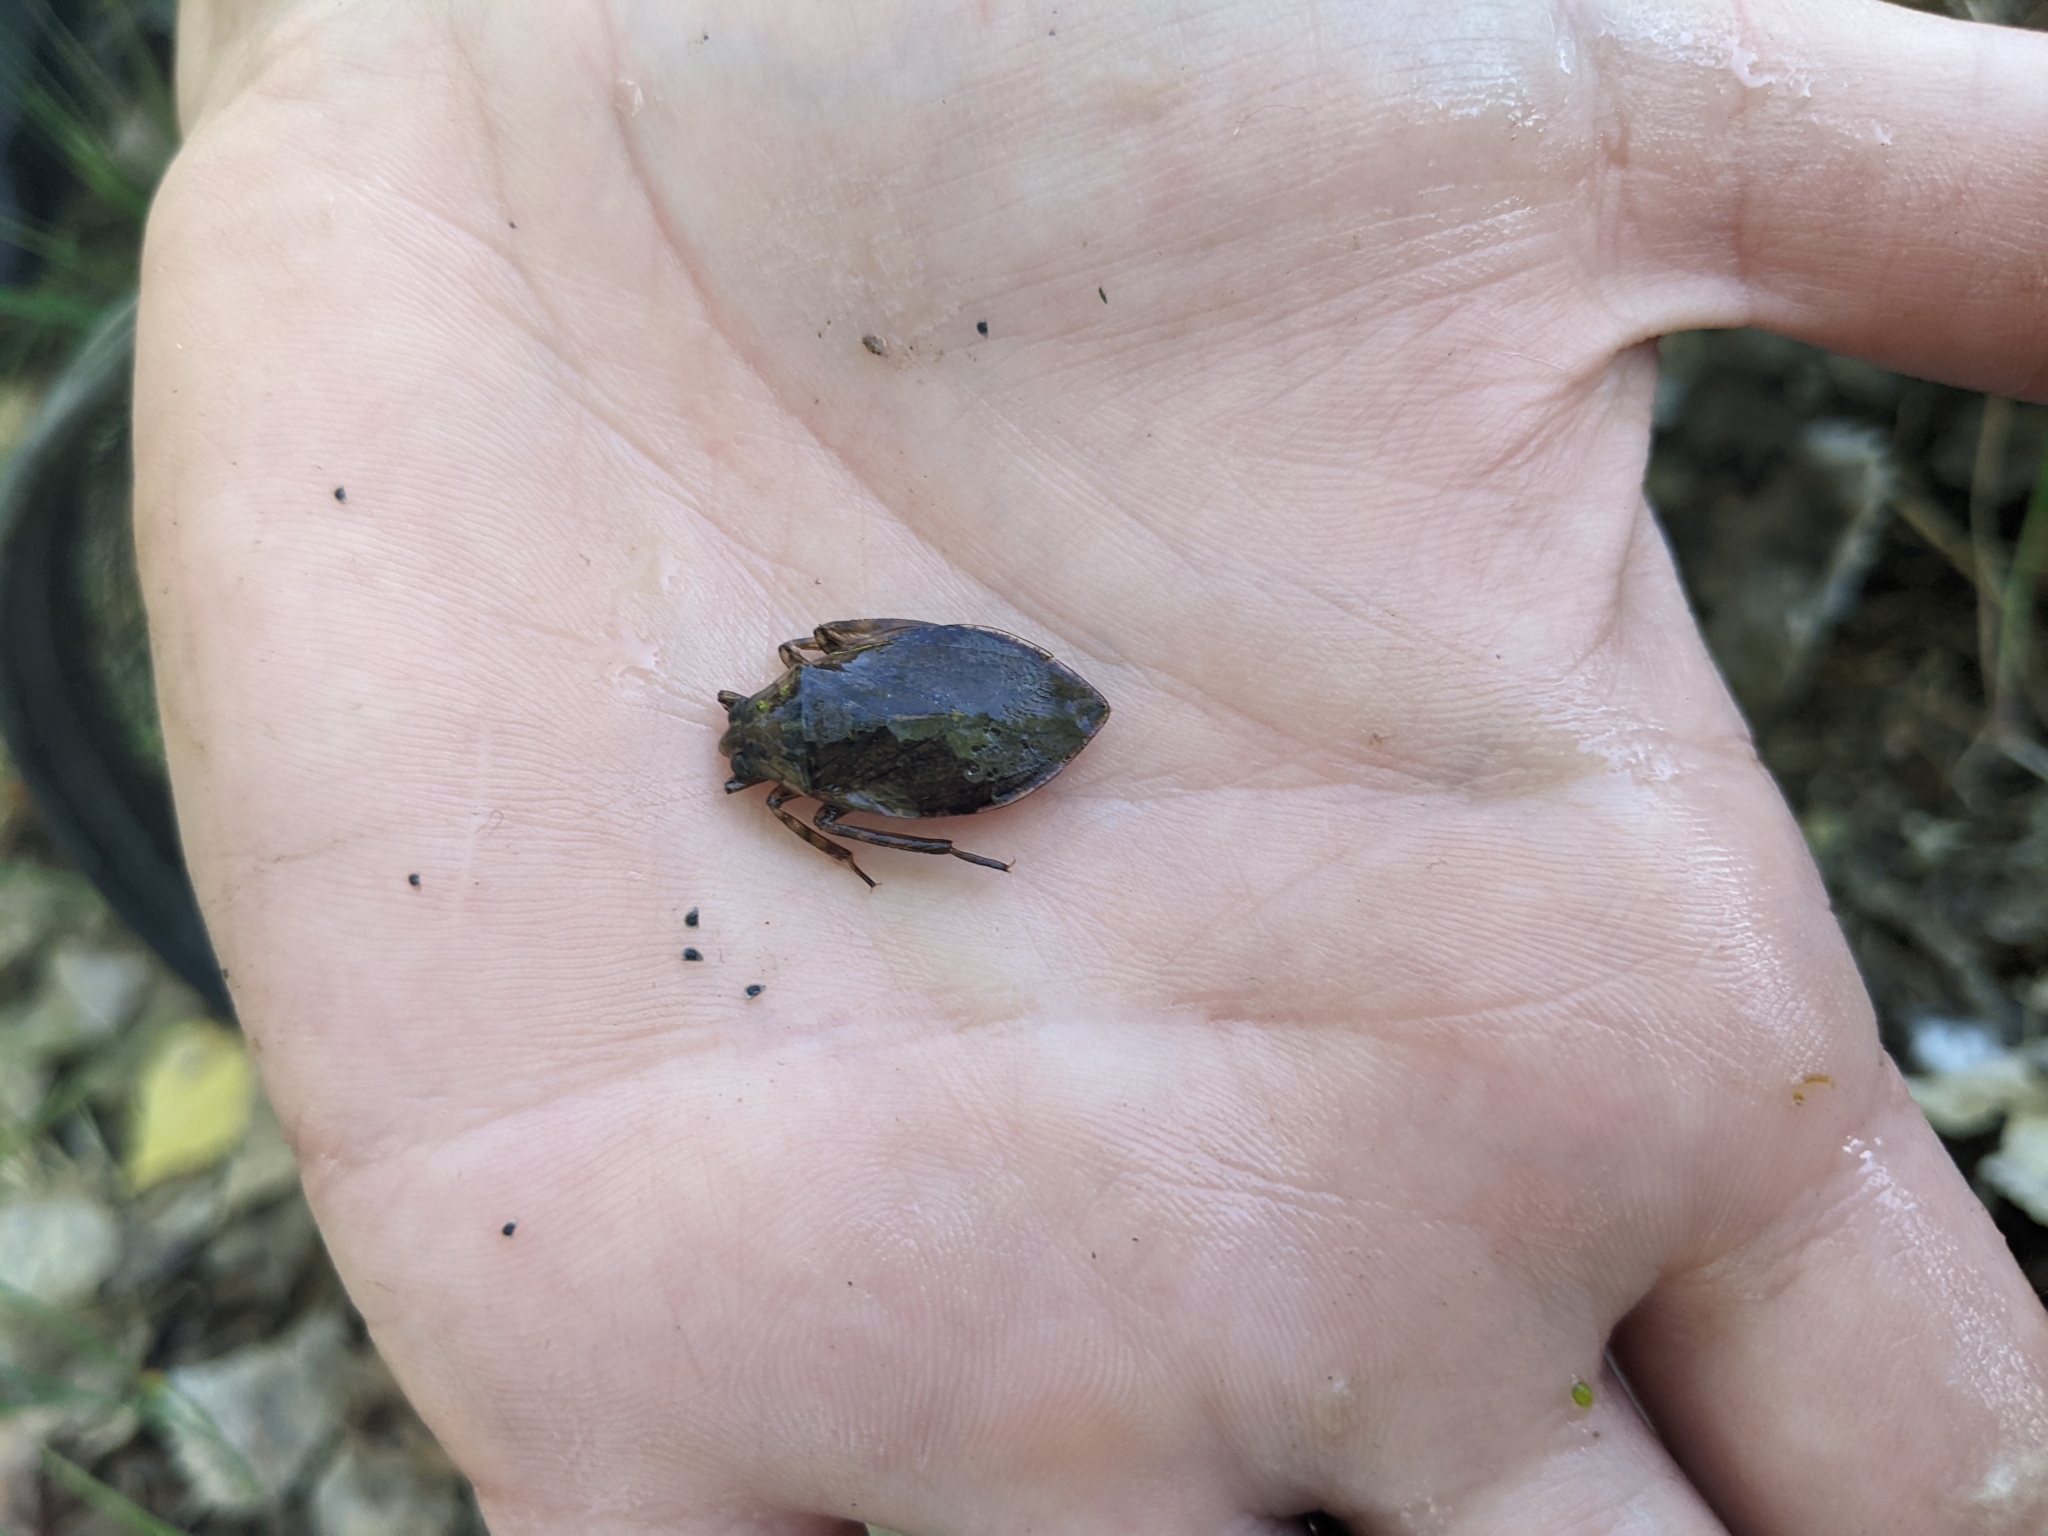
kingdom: Animalia
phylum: Arthropoda
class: Insecta
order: Hemiptera
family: Belostomatidae
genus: Belostoma
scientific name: Belostoma
